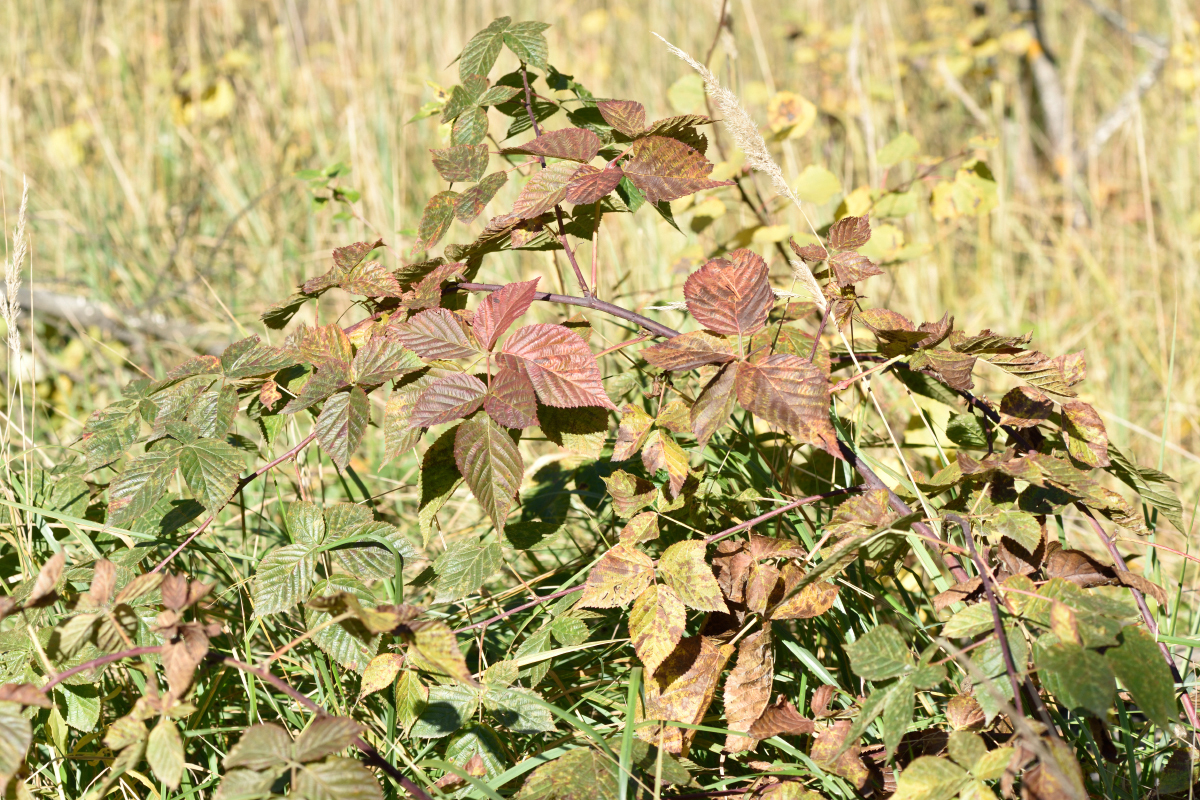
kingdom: Plantae
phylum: Tracheophyta
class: Magnoliopsida
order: Rosales
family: Rosaceae
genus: Rubus
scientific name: Rubus polonicus
